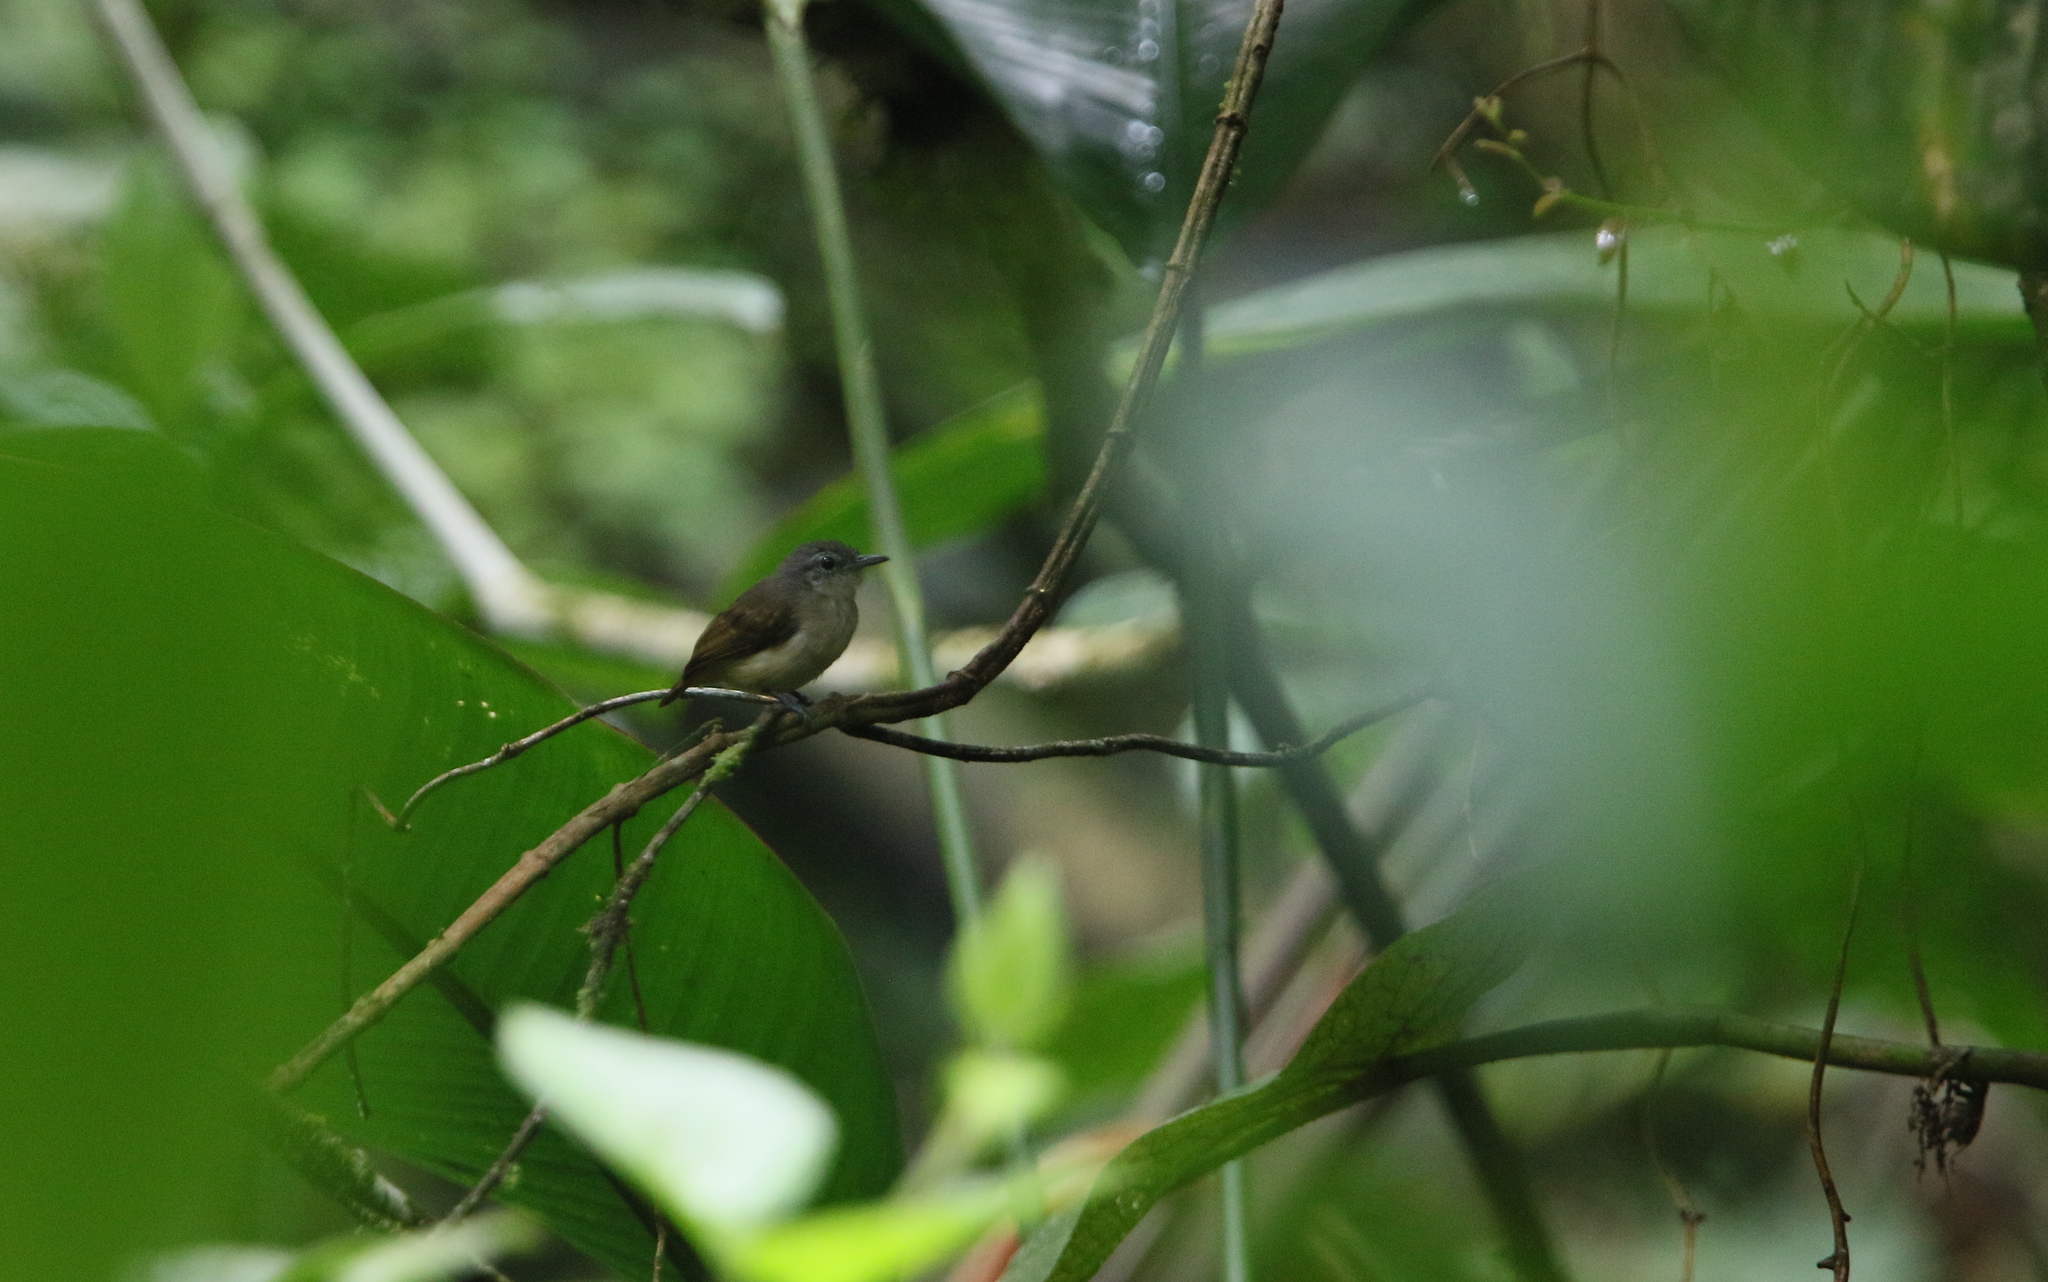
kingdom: Animalia
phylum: Chordata
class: Aves
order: Passeriformes
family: Thamnophilidae
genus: Myrmotherula
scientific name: Myrmotherula axillaris
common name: White-flanked antwren
